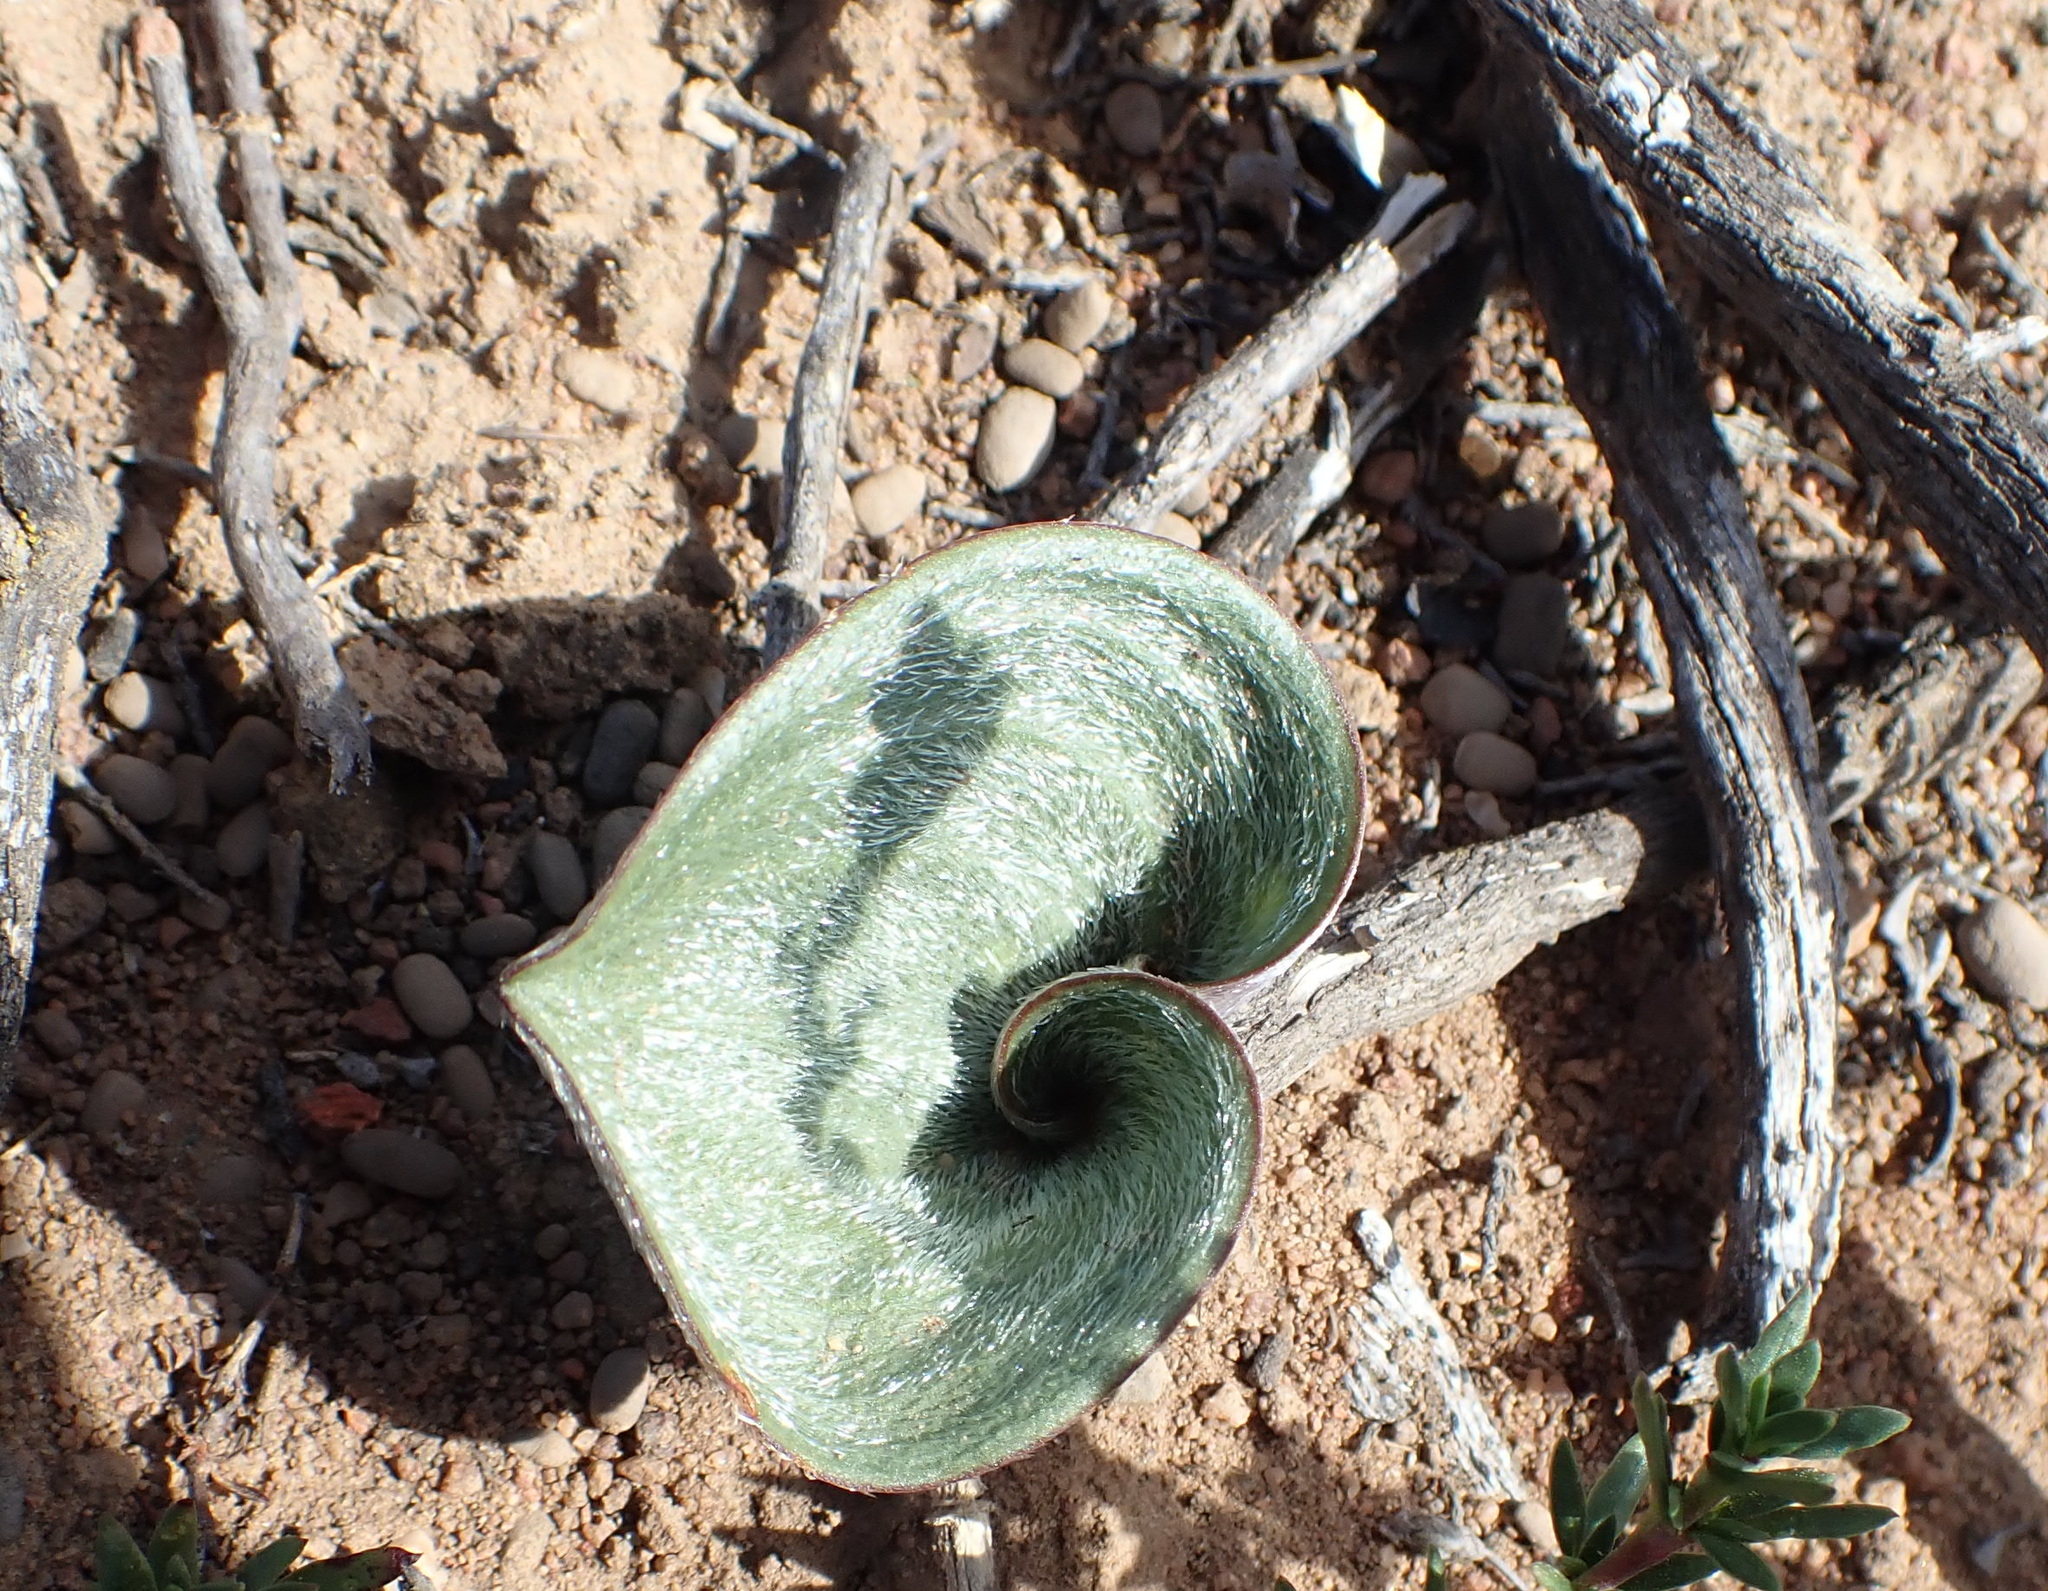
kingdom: Plantae
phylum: Tracheophyta
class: Liliopsida
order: Asparagales
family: Asparagaceae
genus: Eriospermum
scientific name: Eriospermum capense
